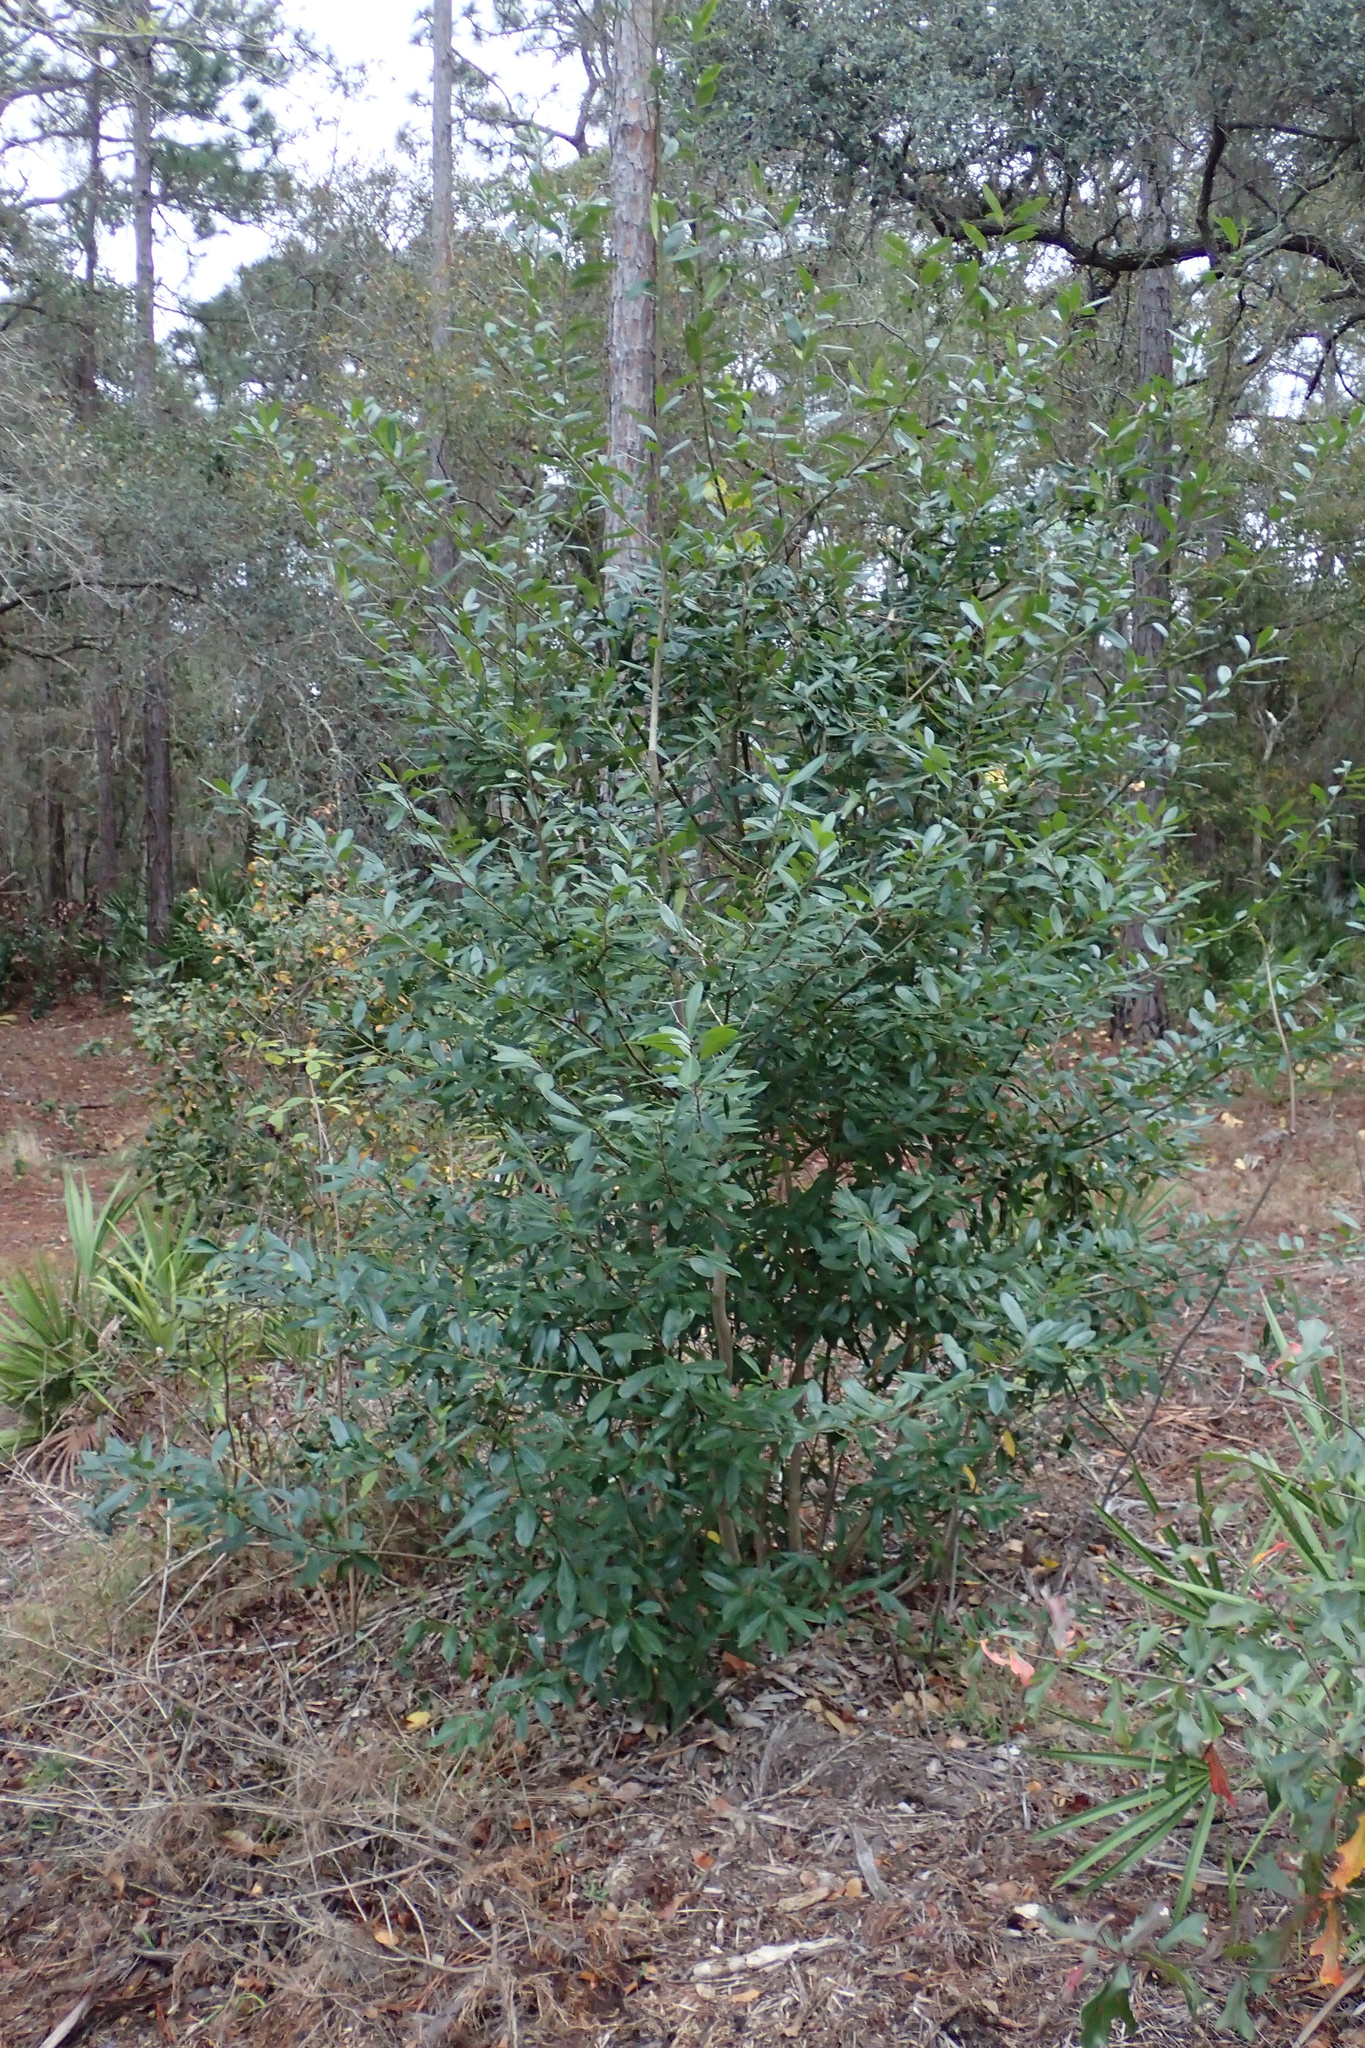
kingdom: Plantae
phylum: Tracheophyta
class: Magnoliopsida
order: Aquifoliales
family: Aquifoliaceae
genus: Ilex
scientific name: Ilex cassine
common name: Dahoon
